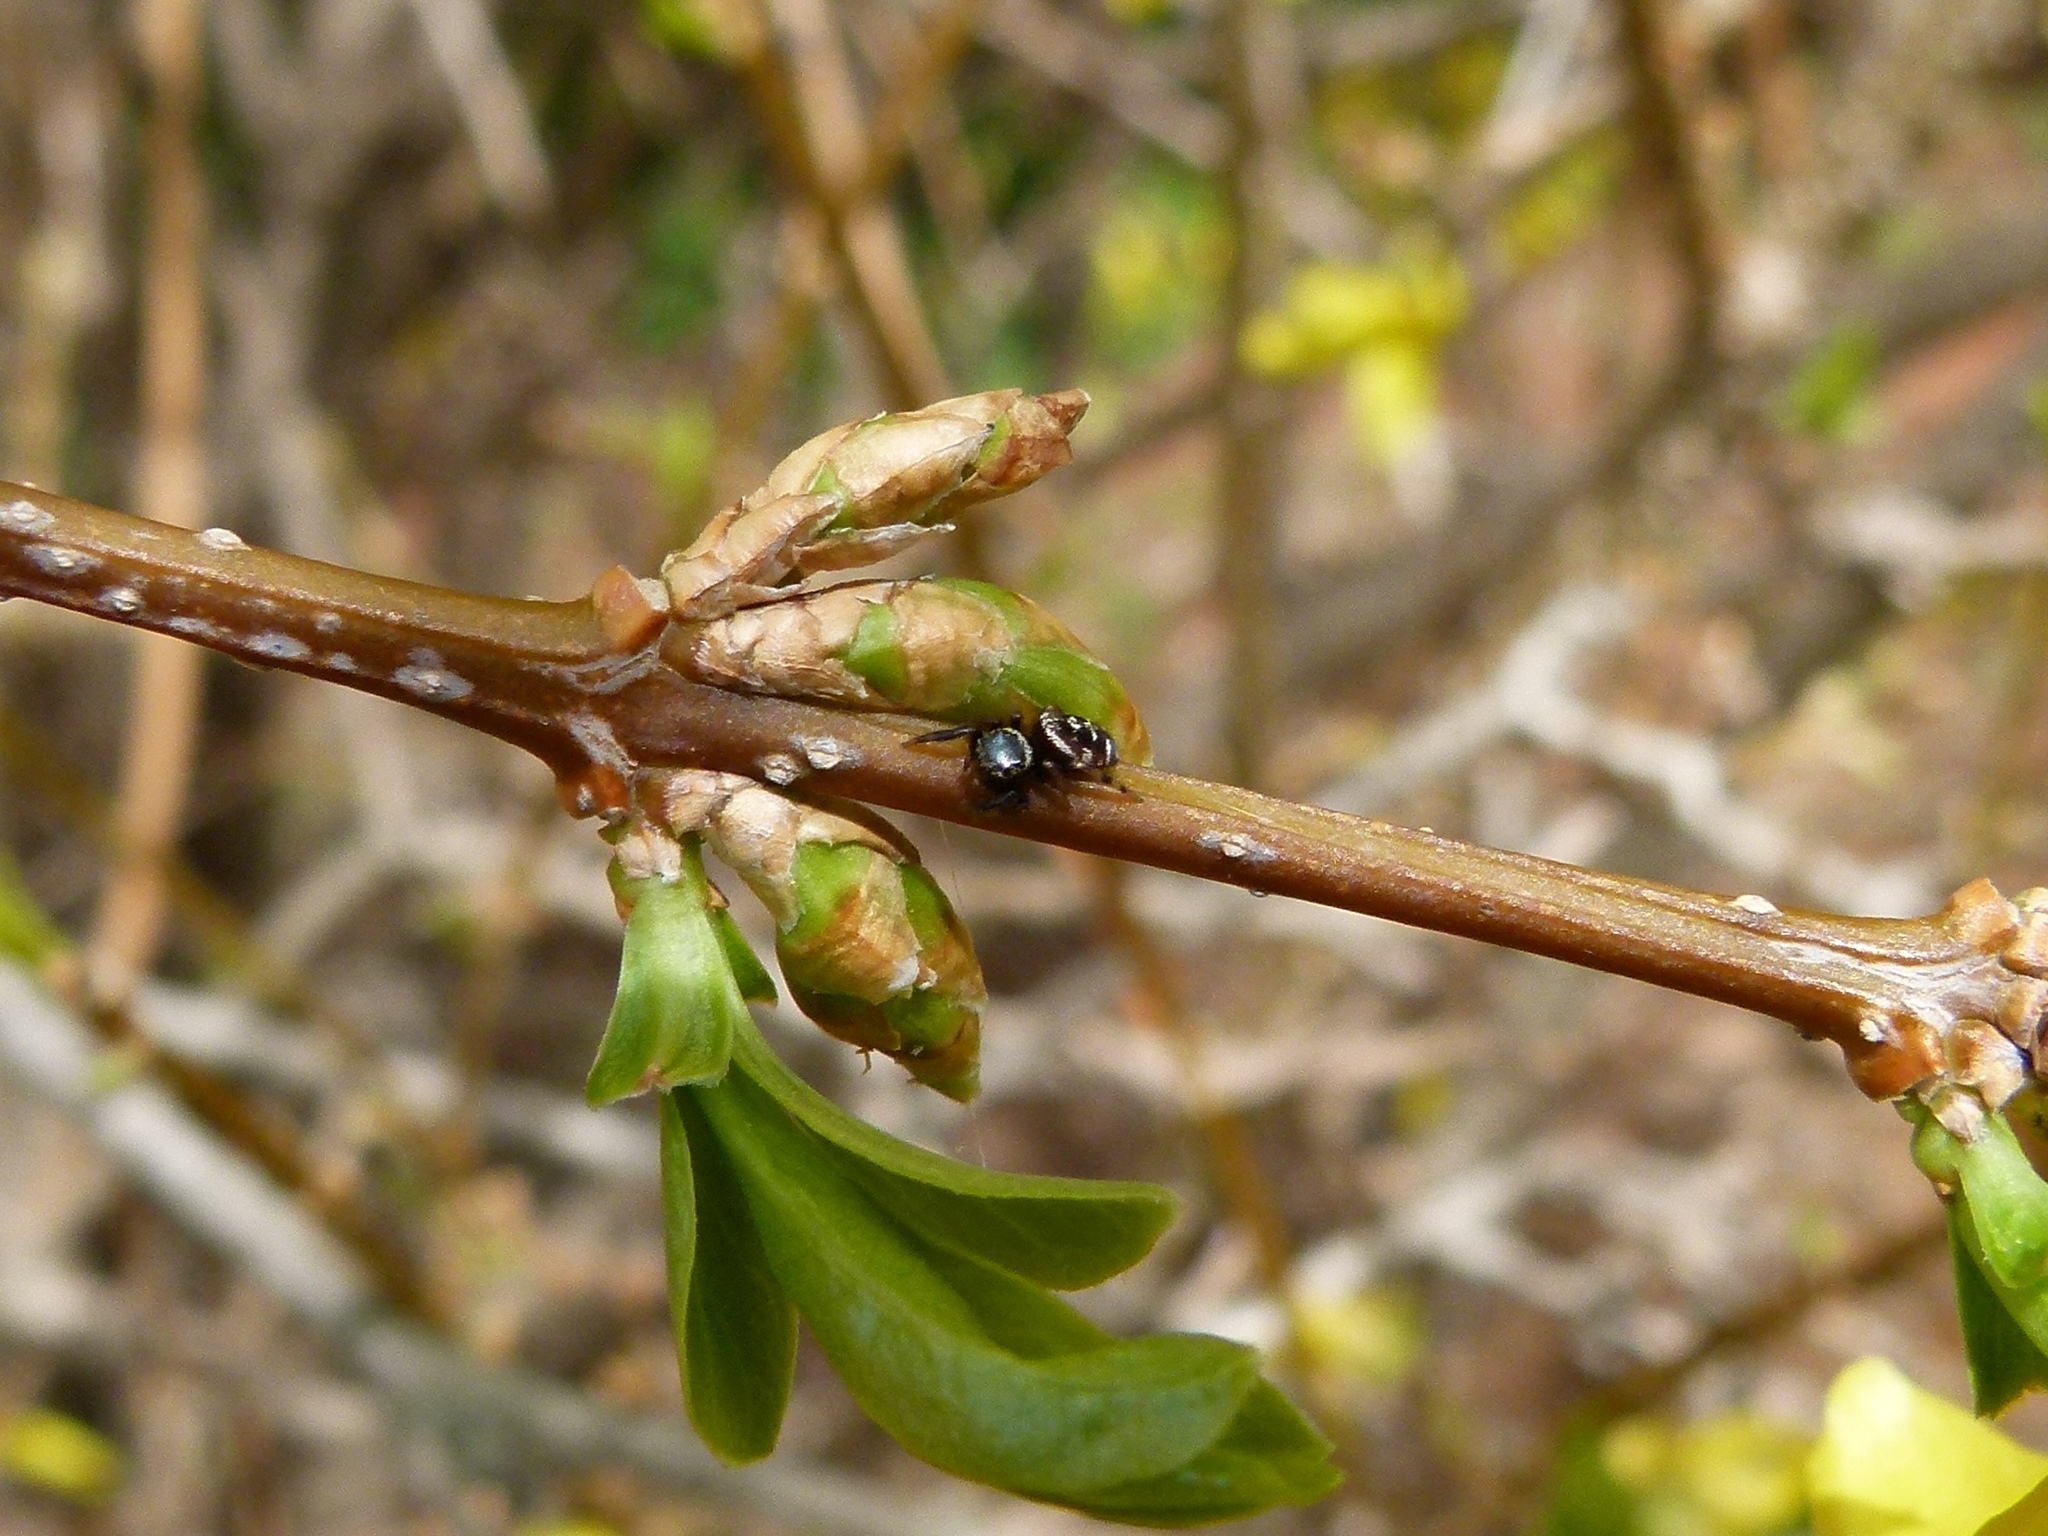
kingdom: Animalia
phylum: Arthropoda
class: Arachnida
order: Araneae
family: Salticidae
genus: Paraphidippus
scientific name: Paraphidippus aurantius
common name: Jumping spiders
